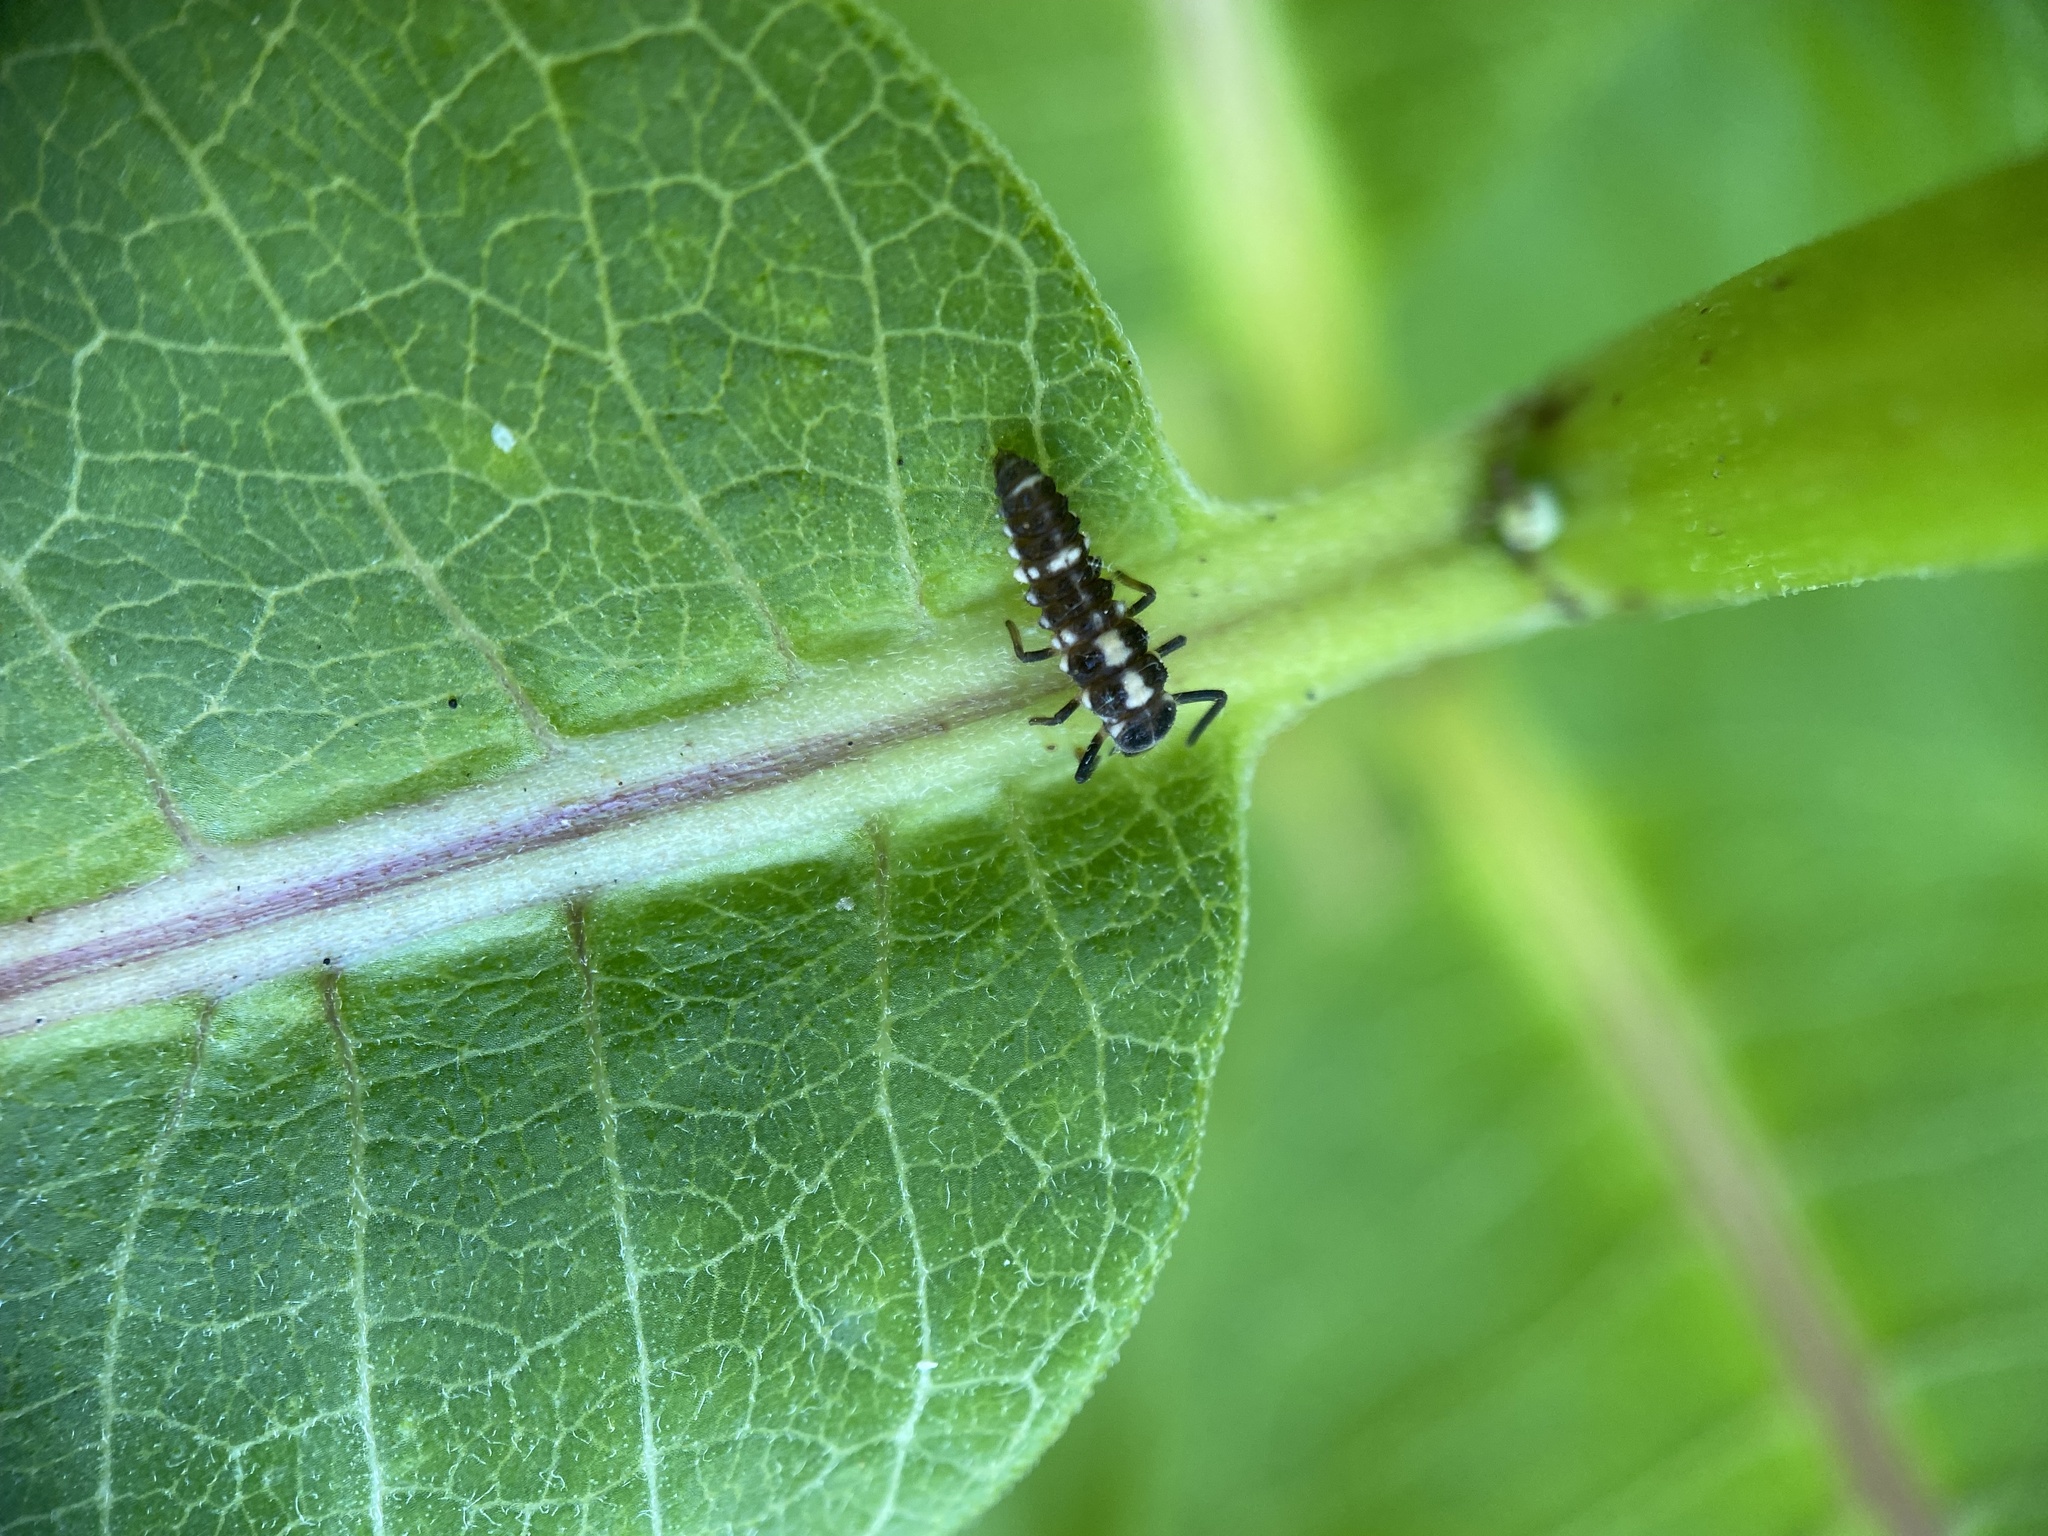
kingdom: Animalia
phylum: Arthropoda
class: Insecta
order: Coleoptera
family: Coccinellidae
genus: Propylaea
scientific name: Propylaea quatuordecimpunctata
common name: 14-spotted ladybird beetle
